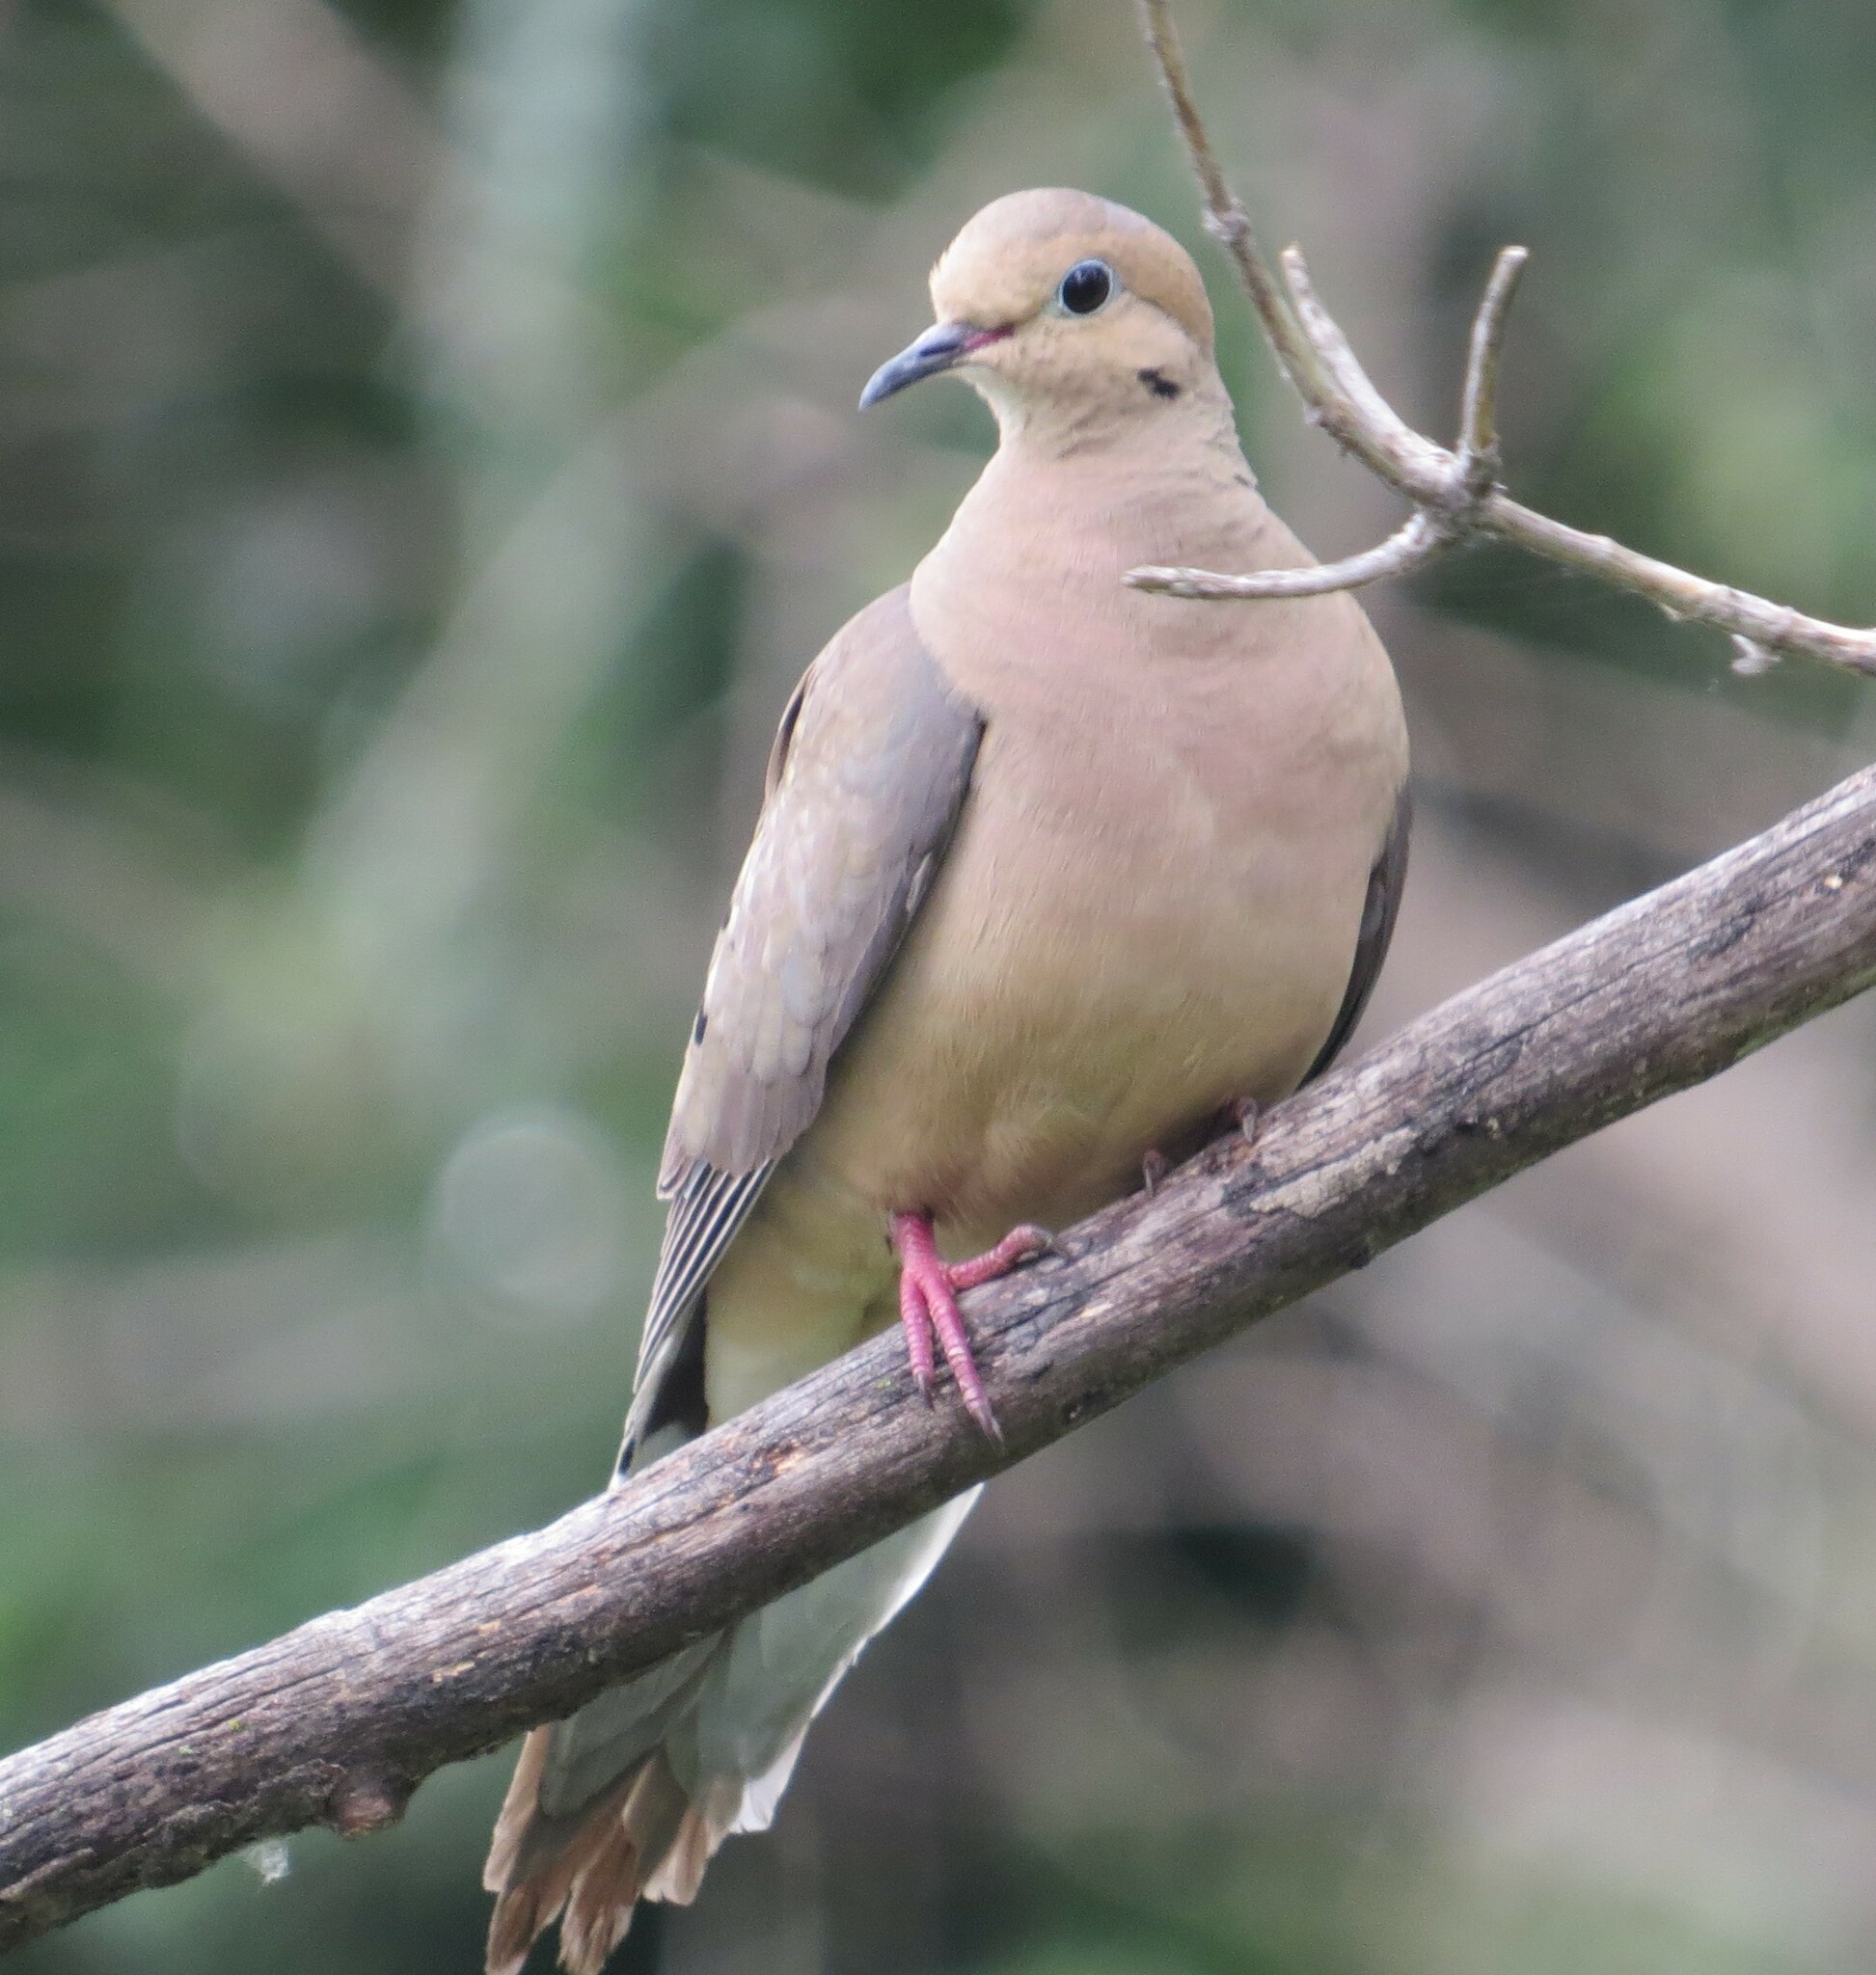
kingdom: Animalia
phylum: Chordata
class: Aves
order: Columbiformes
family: Columbidae
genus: Zenaida
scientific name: Zenaida macroura
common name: Mourning dove
